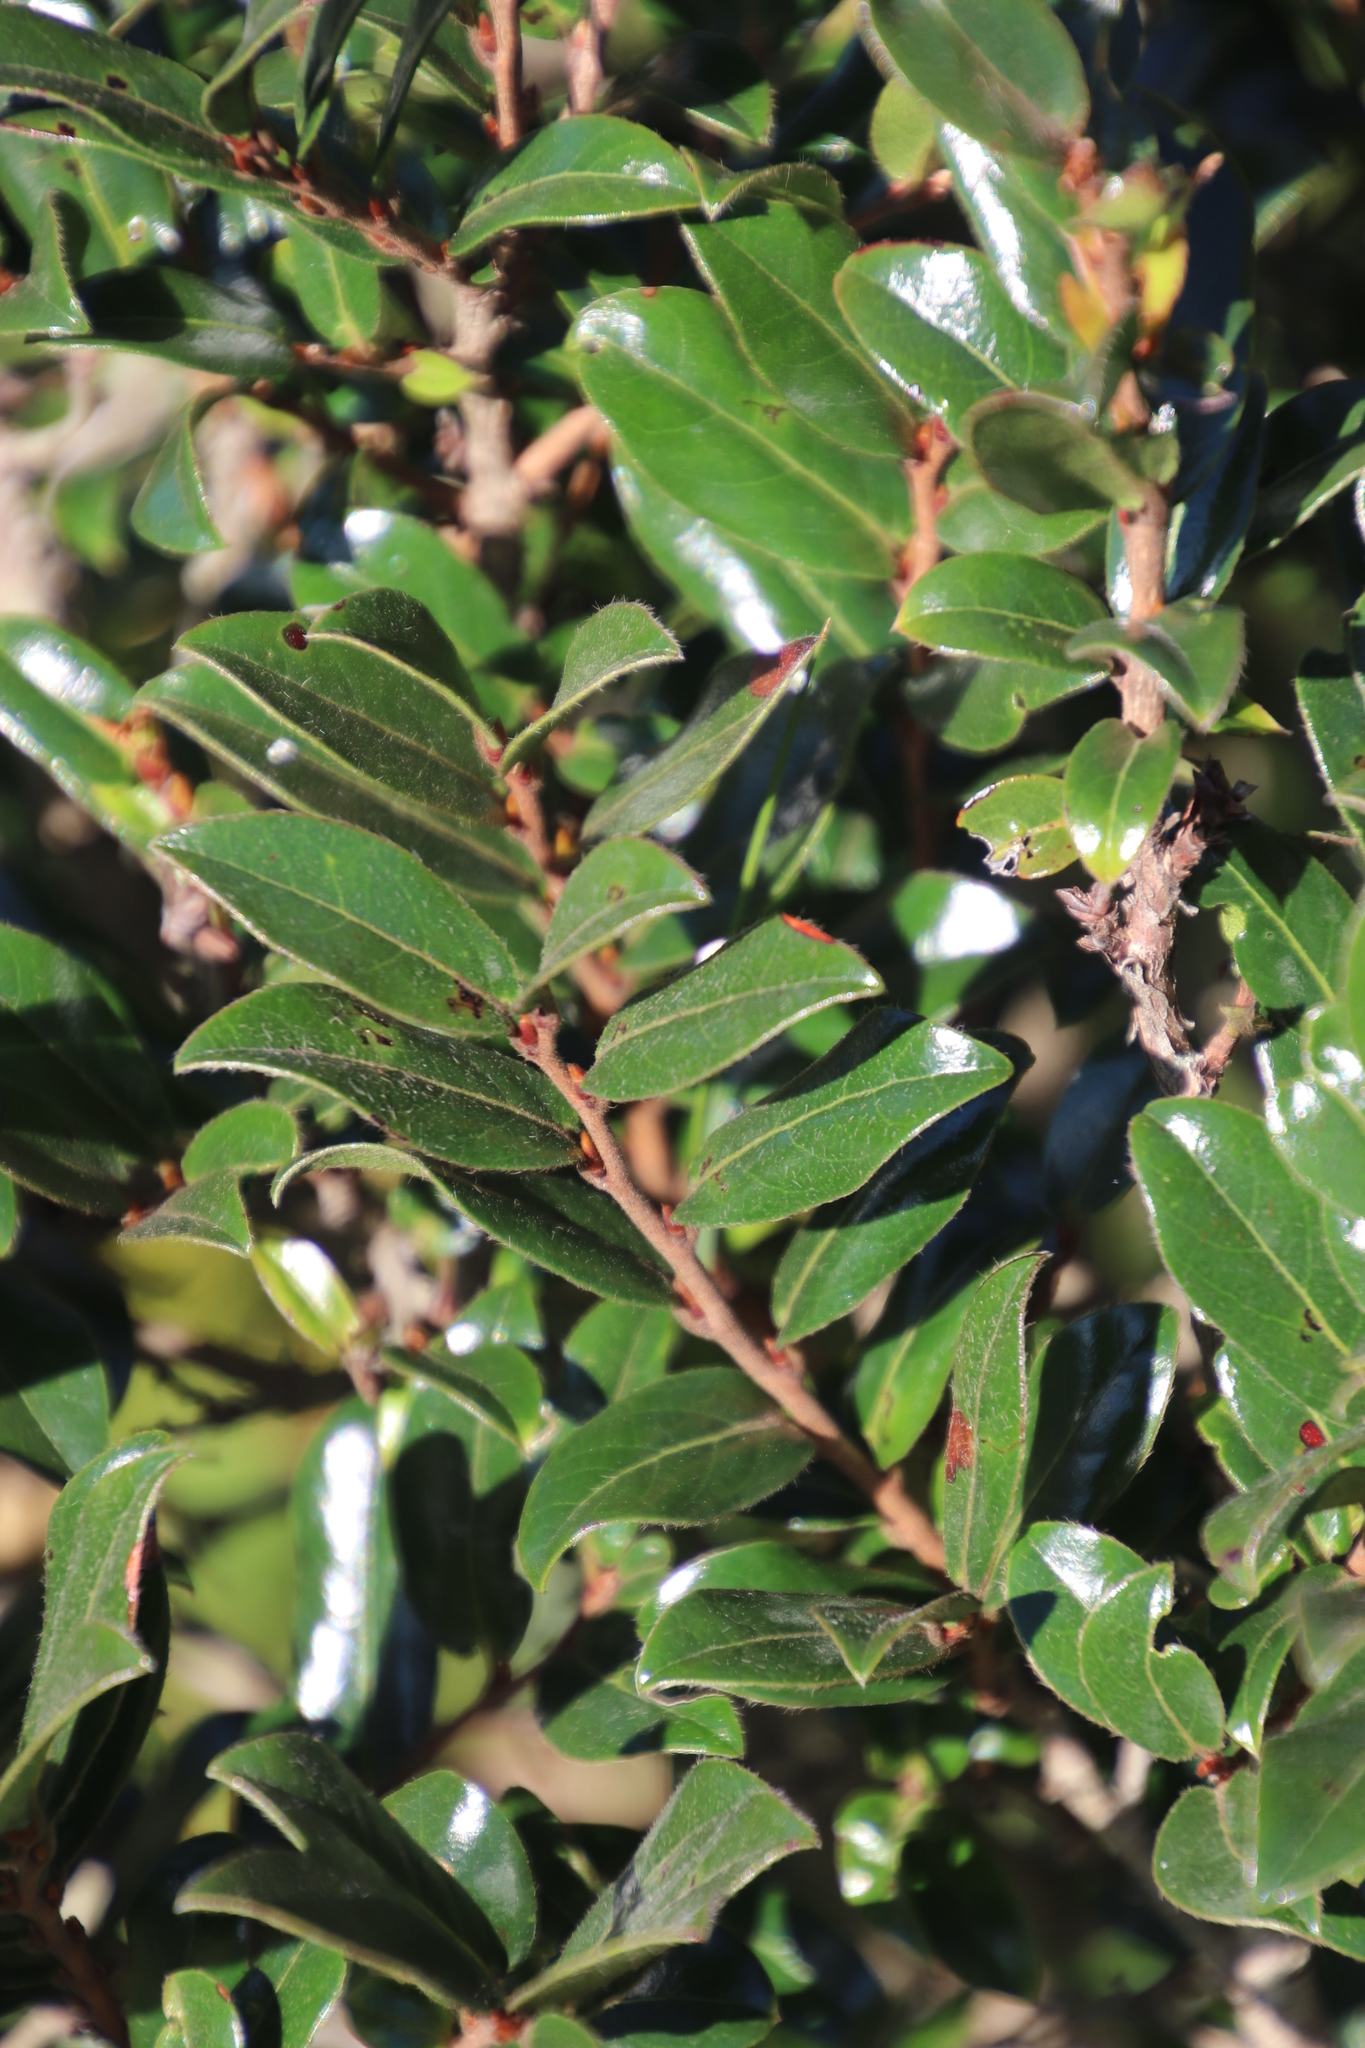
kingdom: Plantae
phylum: Tracheophyta
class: Magnoliopsida
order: Ericales
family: Ebenaceae
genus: Diospyros
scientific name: Diospyros whyteana
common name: Bladder-nut
